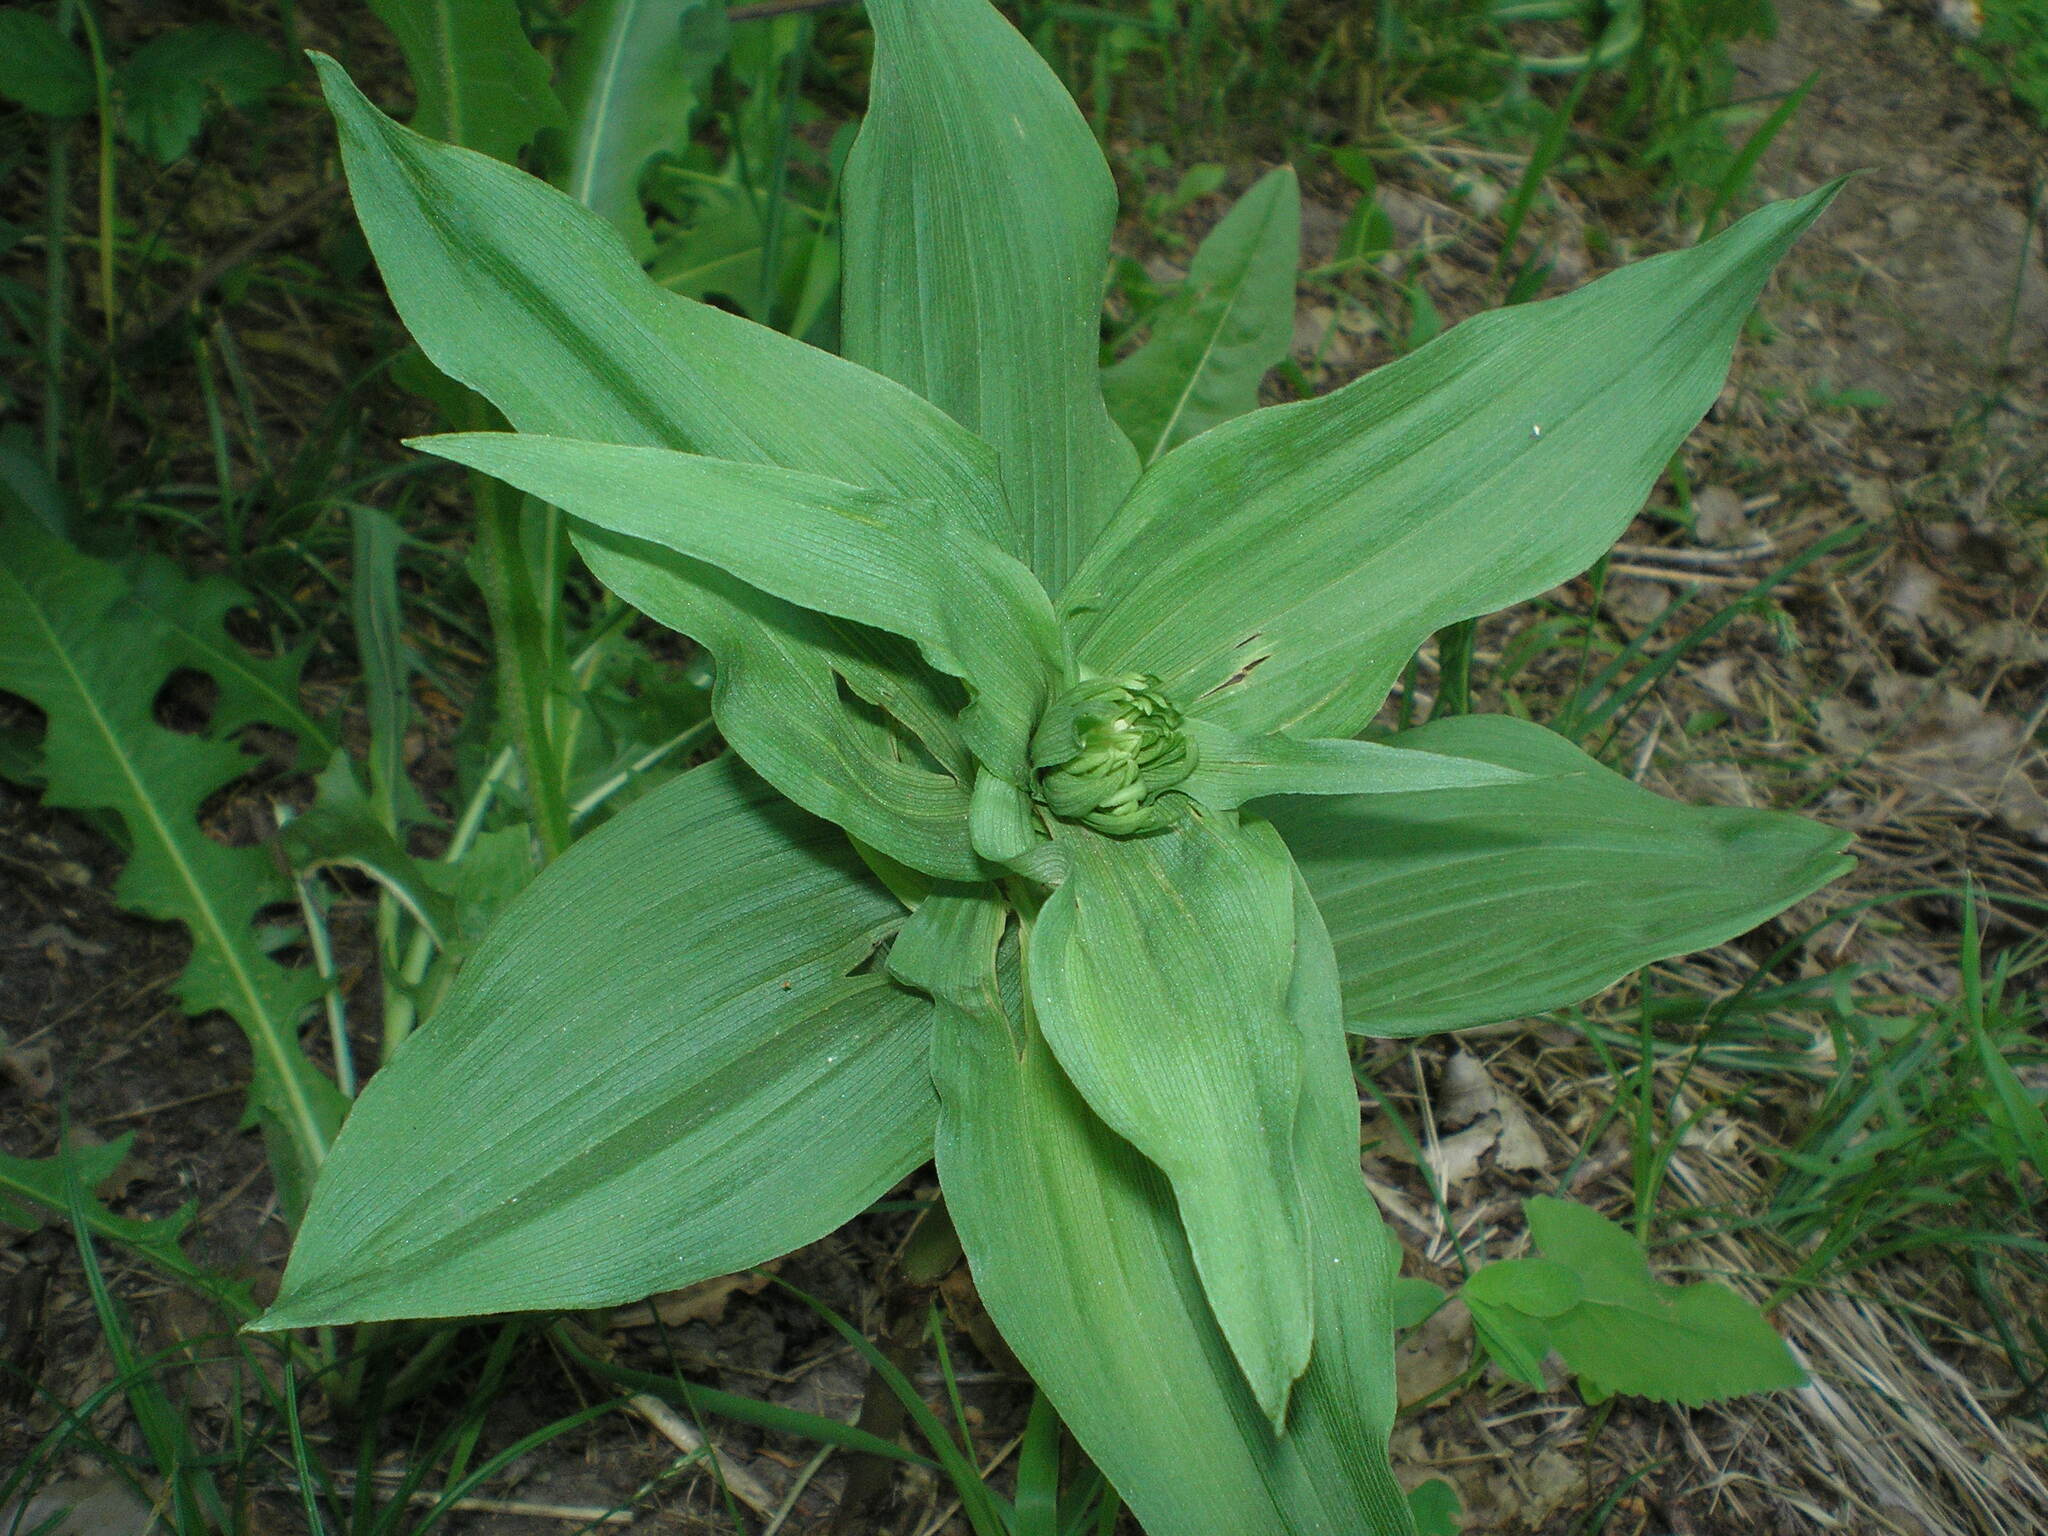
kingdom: Plantae
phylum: Tracheophyta
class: Liliopsida
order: Asparagales
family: Orchidaceae
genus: Epipactis
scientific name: Epipactis helleborine
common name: Broad-leaved helleborine
